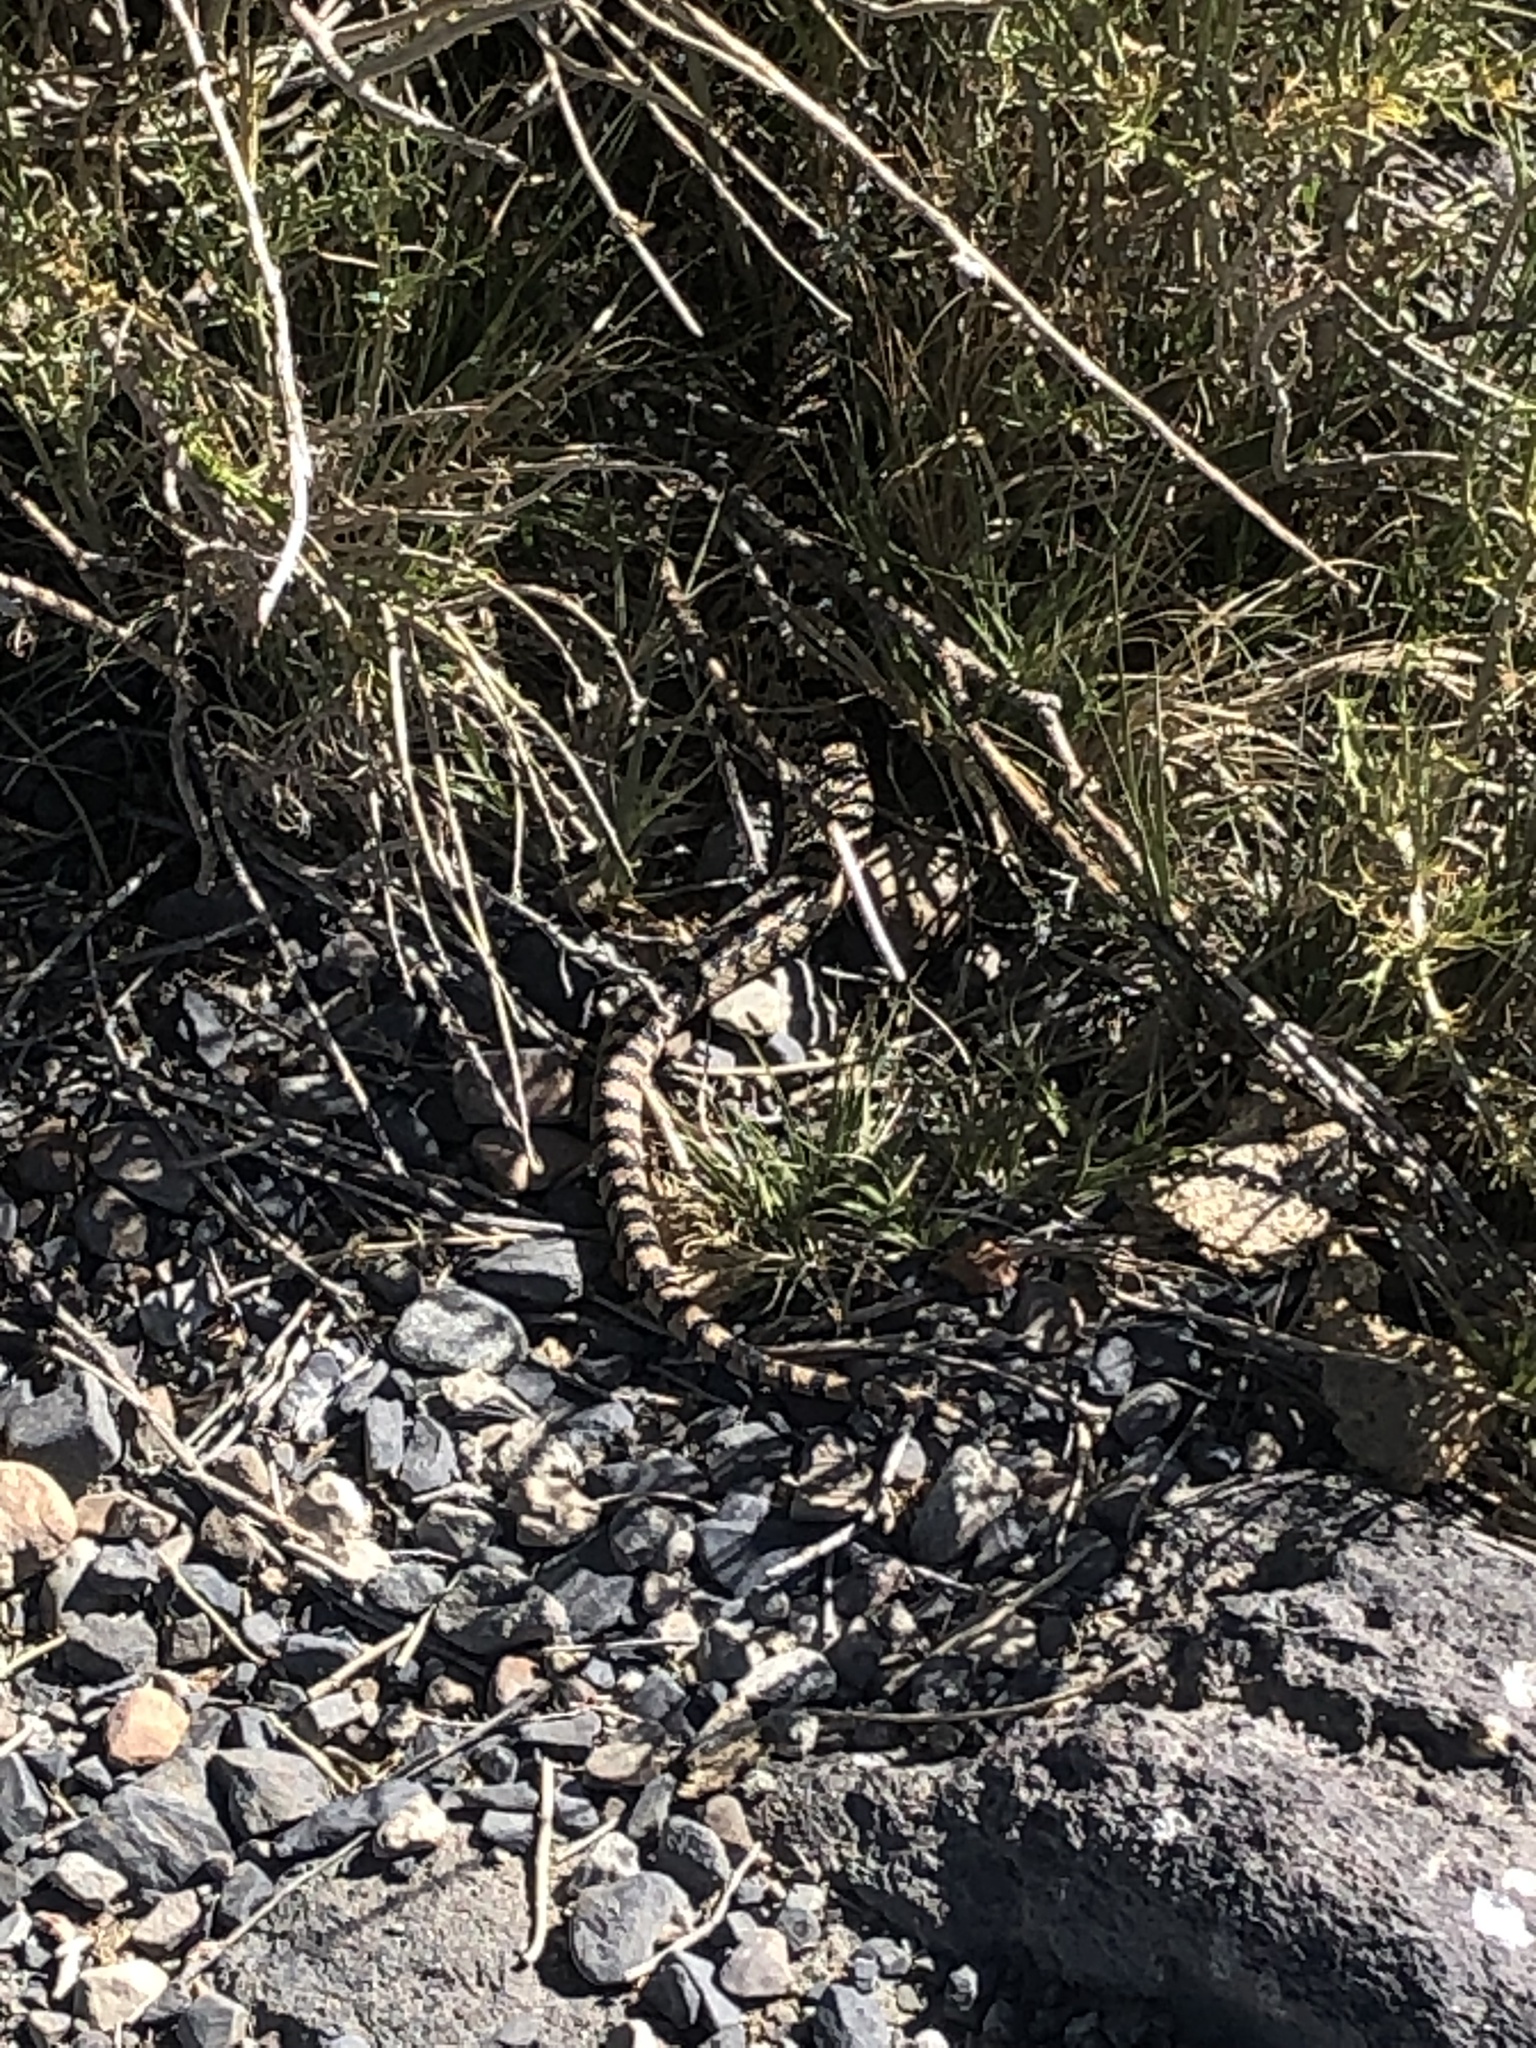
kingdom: Animalia
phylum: Chordata
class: Squamata
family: Colubridae
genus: Pituophis
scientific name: Pituophis catenifer
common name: Gopher snake
